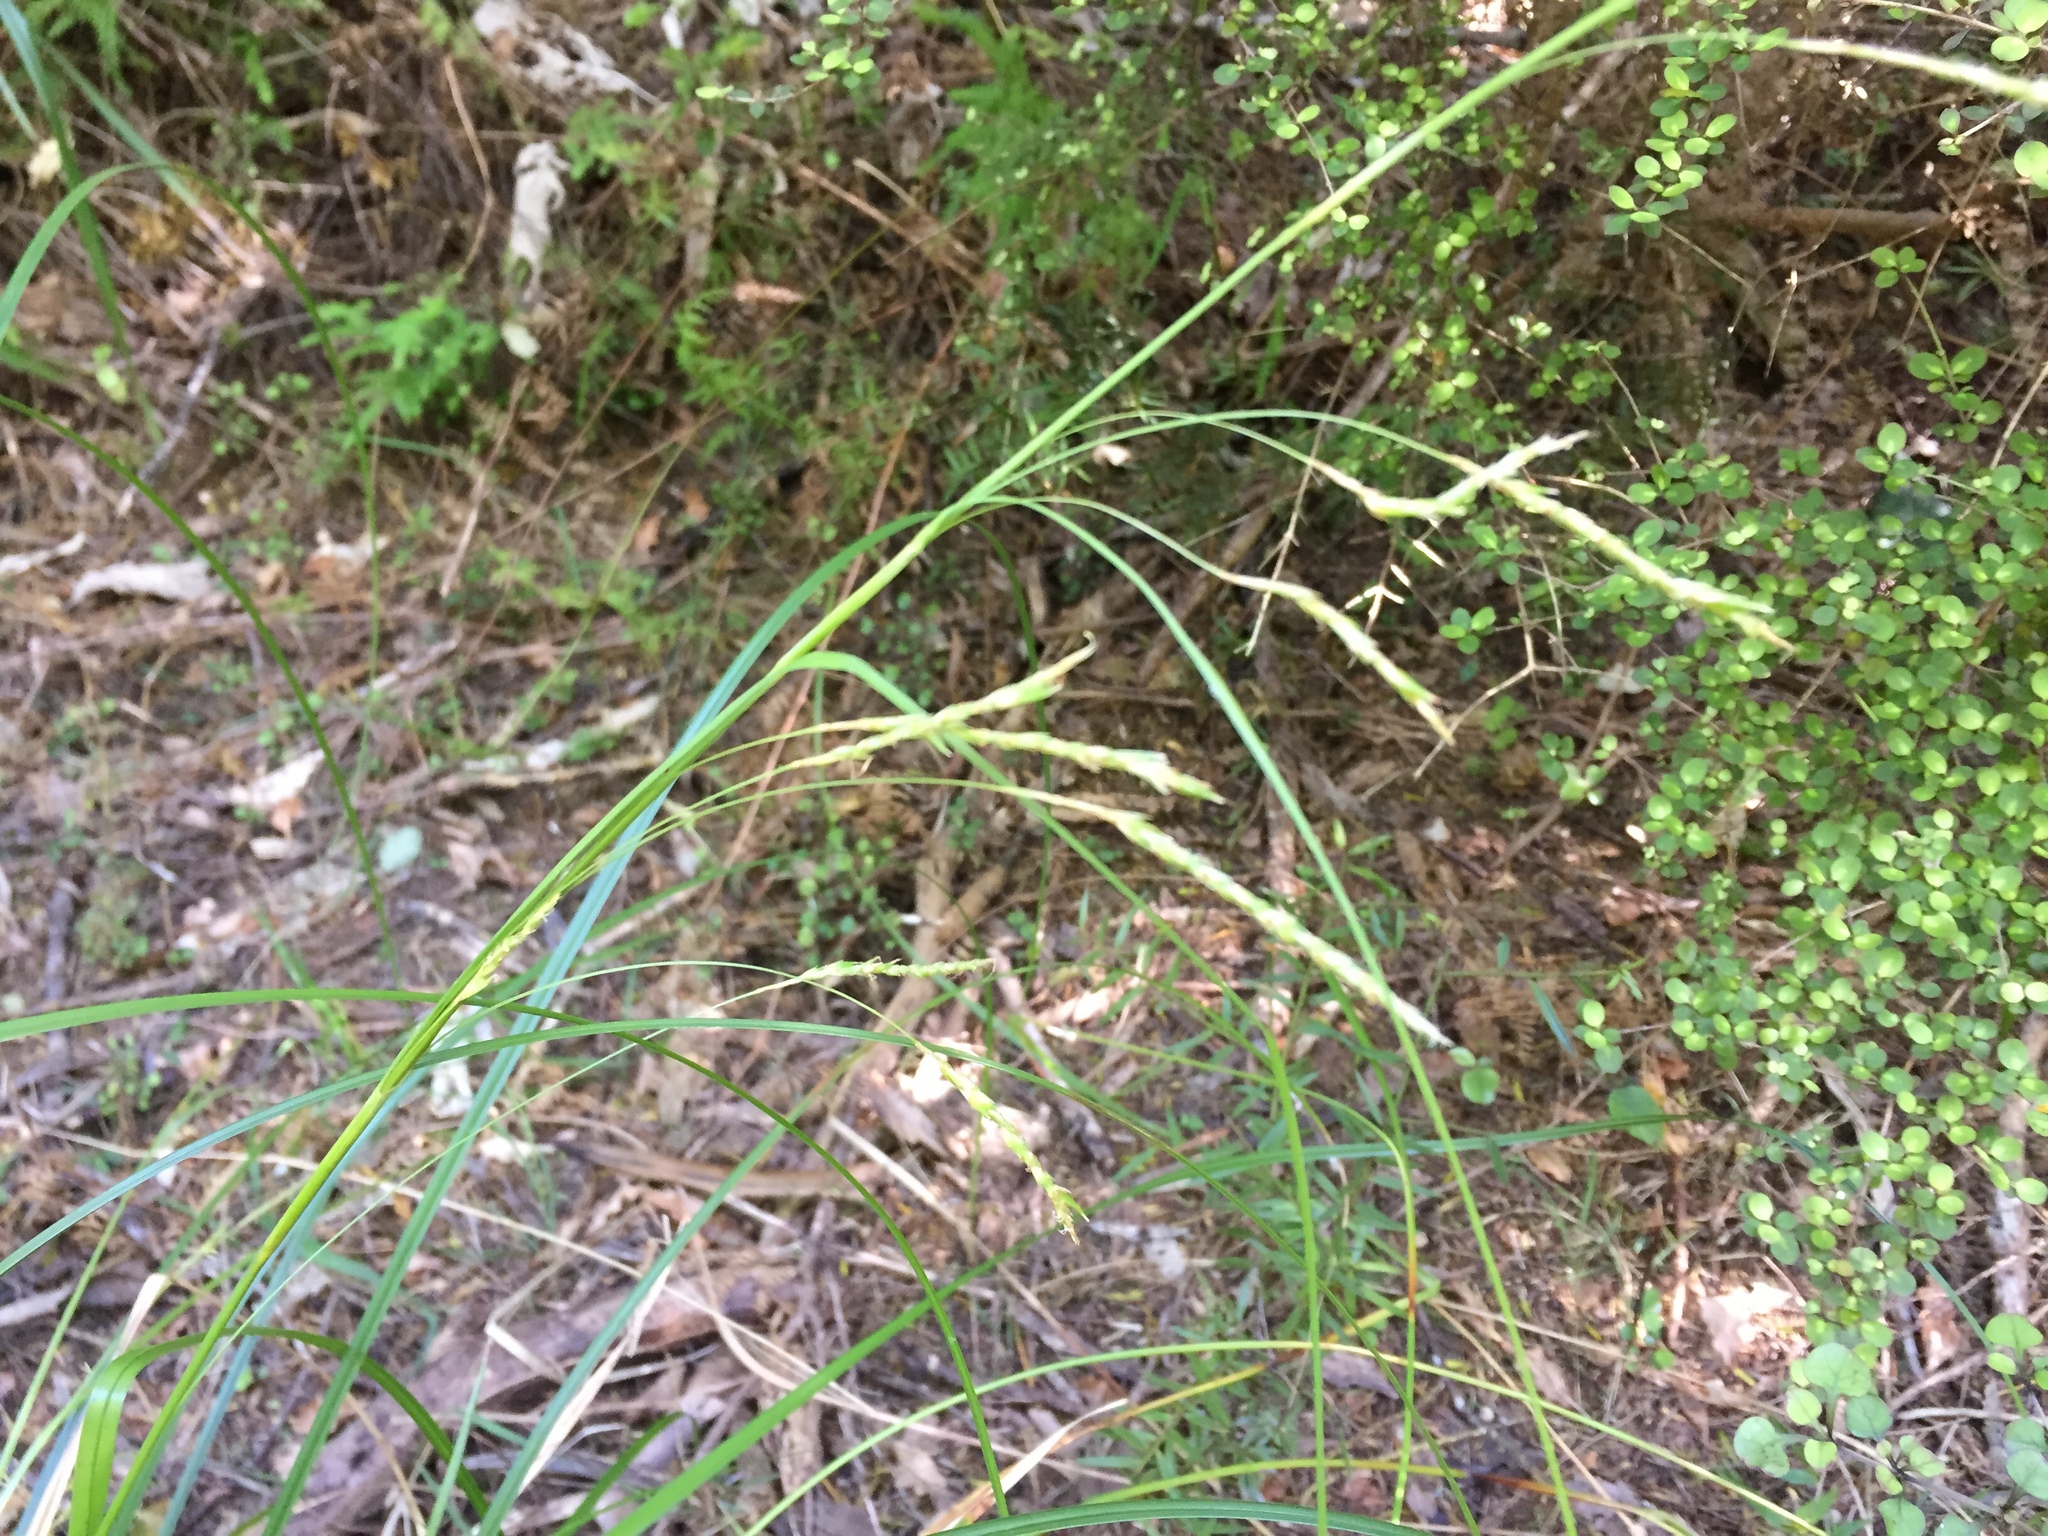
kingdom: Plantae
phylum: Tracheophyta
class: Liliopsida
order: Poales
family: Cyperaceae
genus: Carex
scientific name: Carex longebrachiata
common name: Drooping sedge
